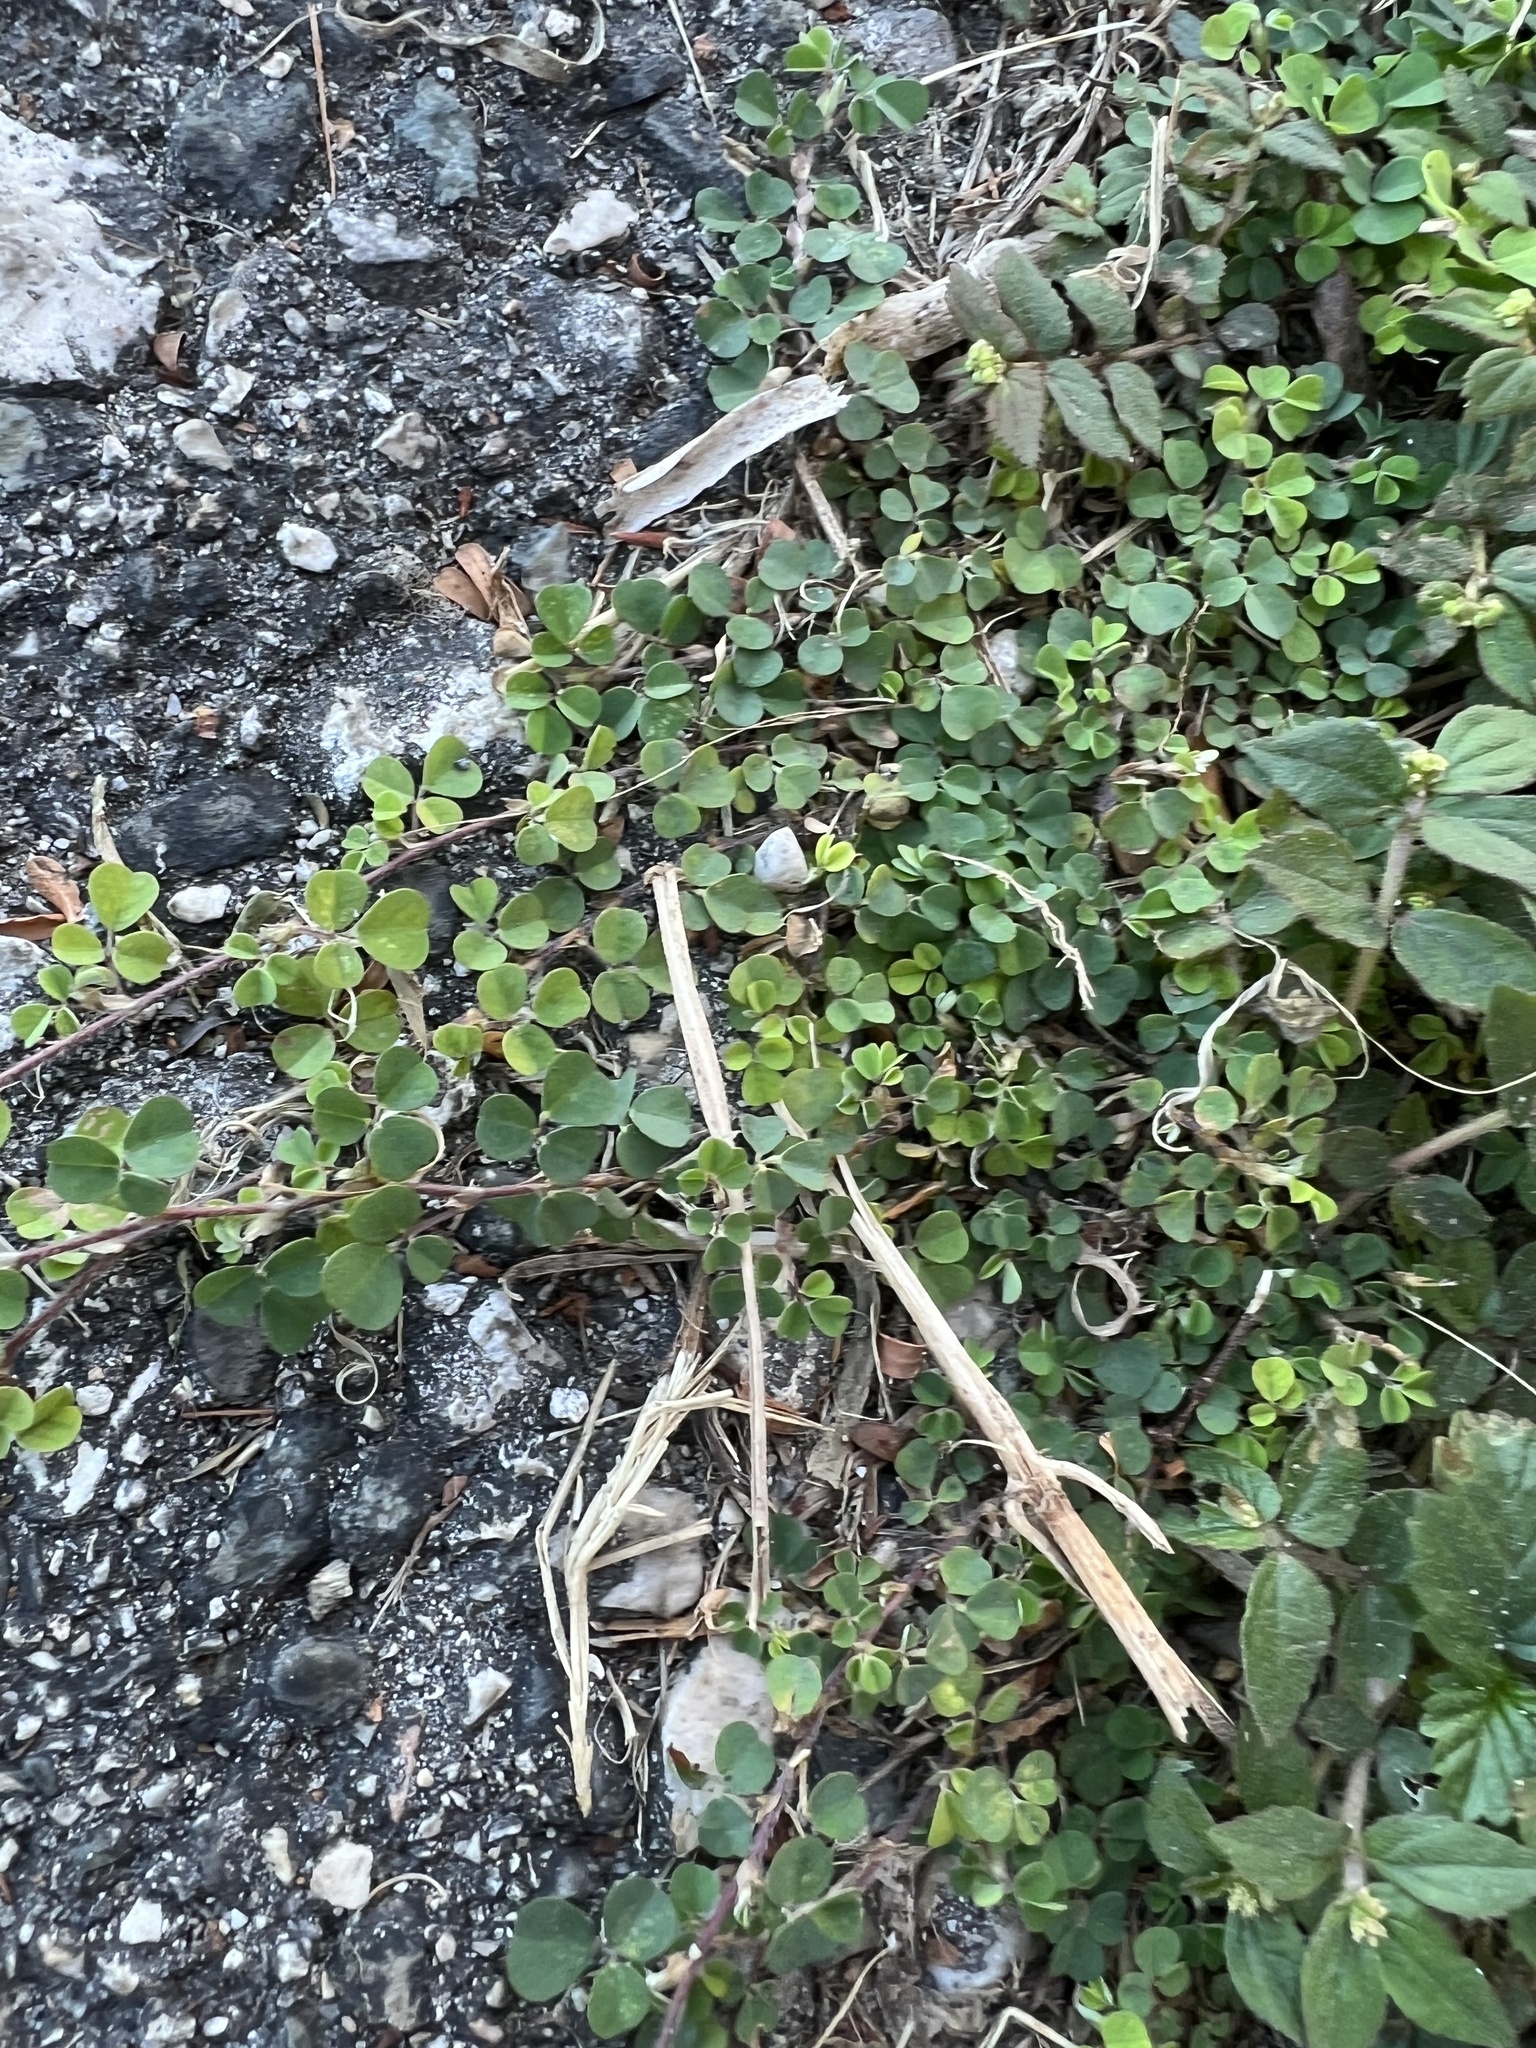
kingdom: Plantae
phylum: Tracheophyta
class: Magnoliopsida
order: Fabales
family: Fabaceae
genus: Indigofera
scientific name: Indigofera spicata
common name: Creeping indigo
